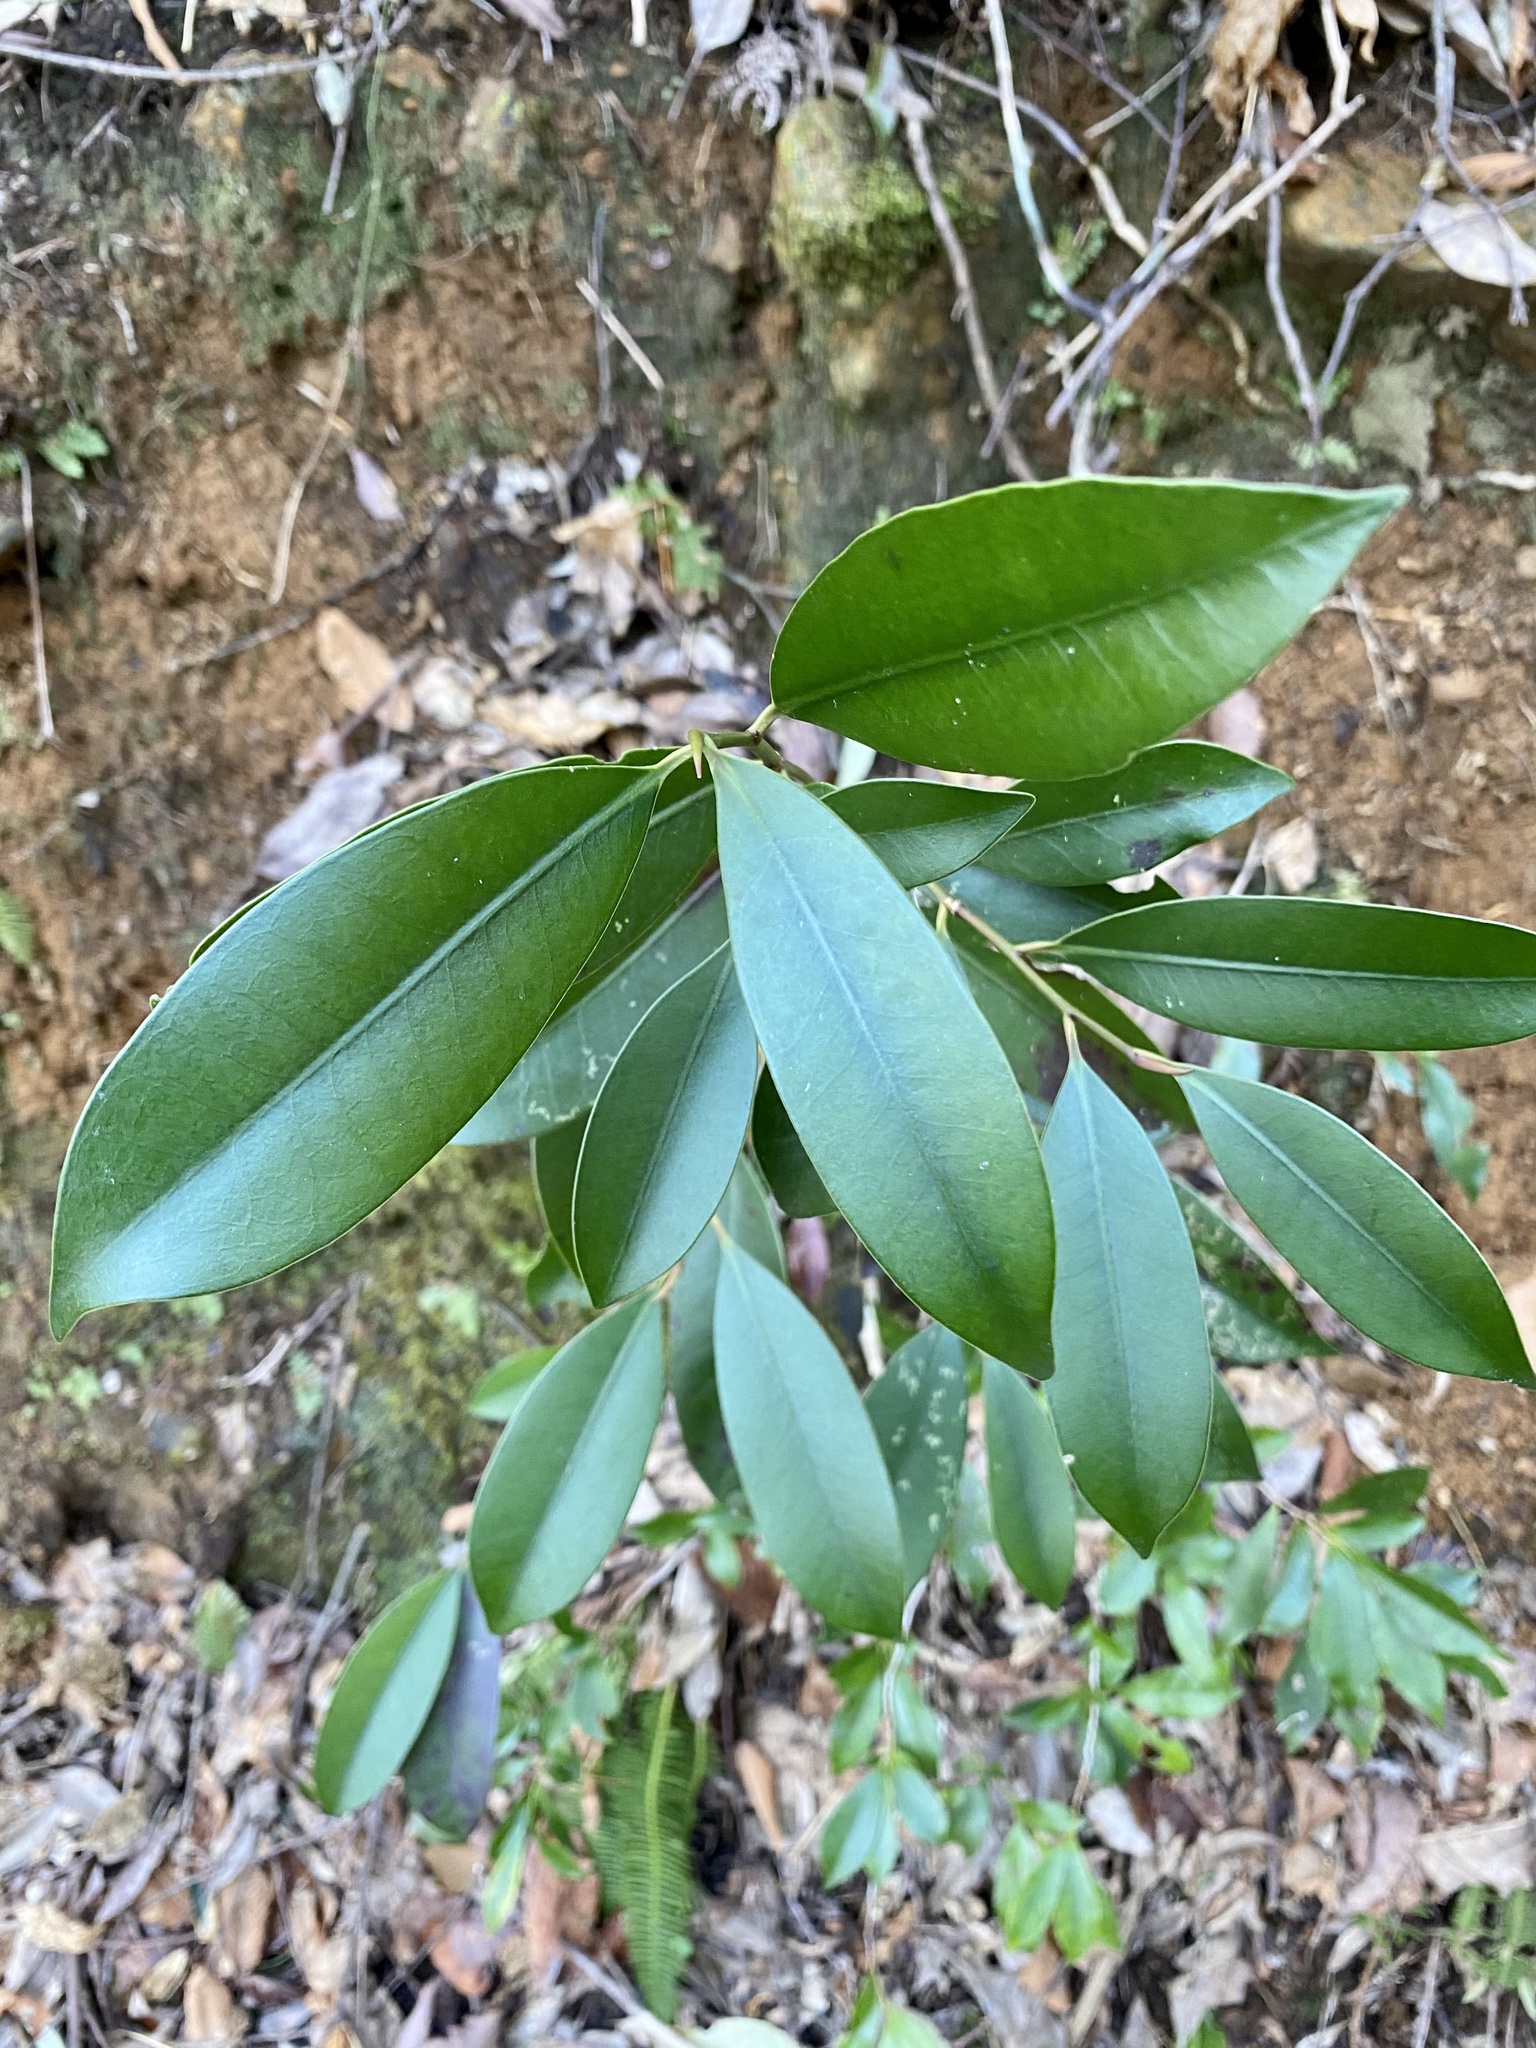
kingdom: Plantae
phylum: Tracheophyta
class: Magnoliopsida
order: Ericales
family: Pentaphylacaceae
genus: Cleyera
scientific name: Cleyera japonica
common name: Sakaki
